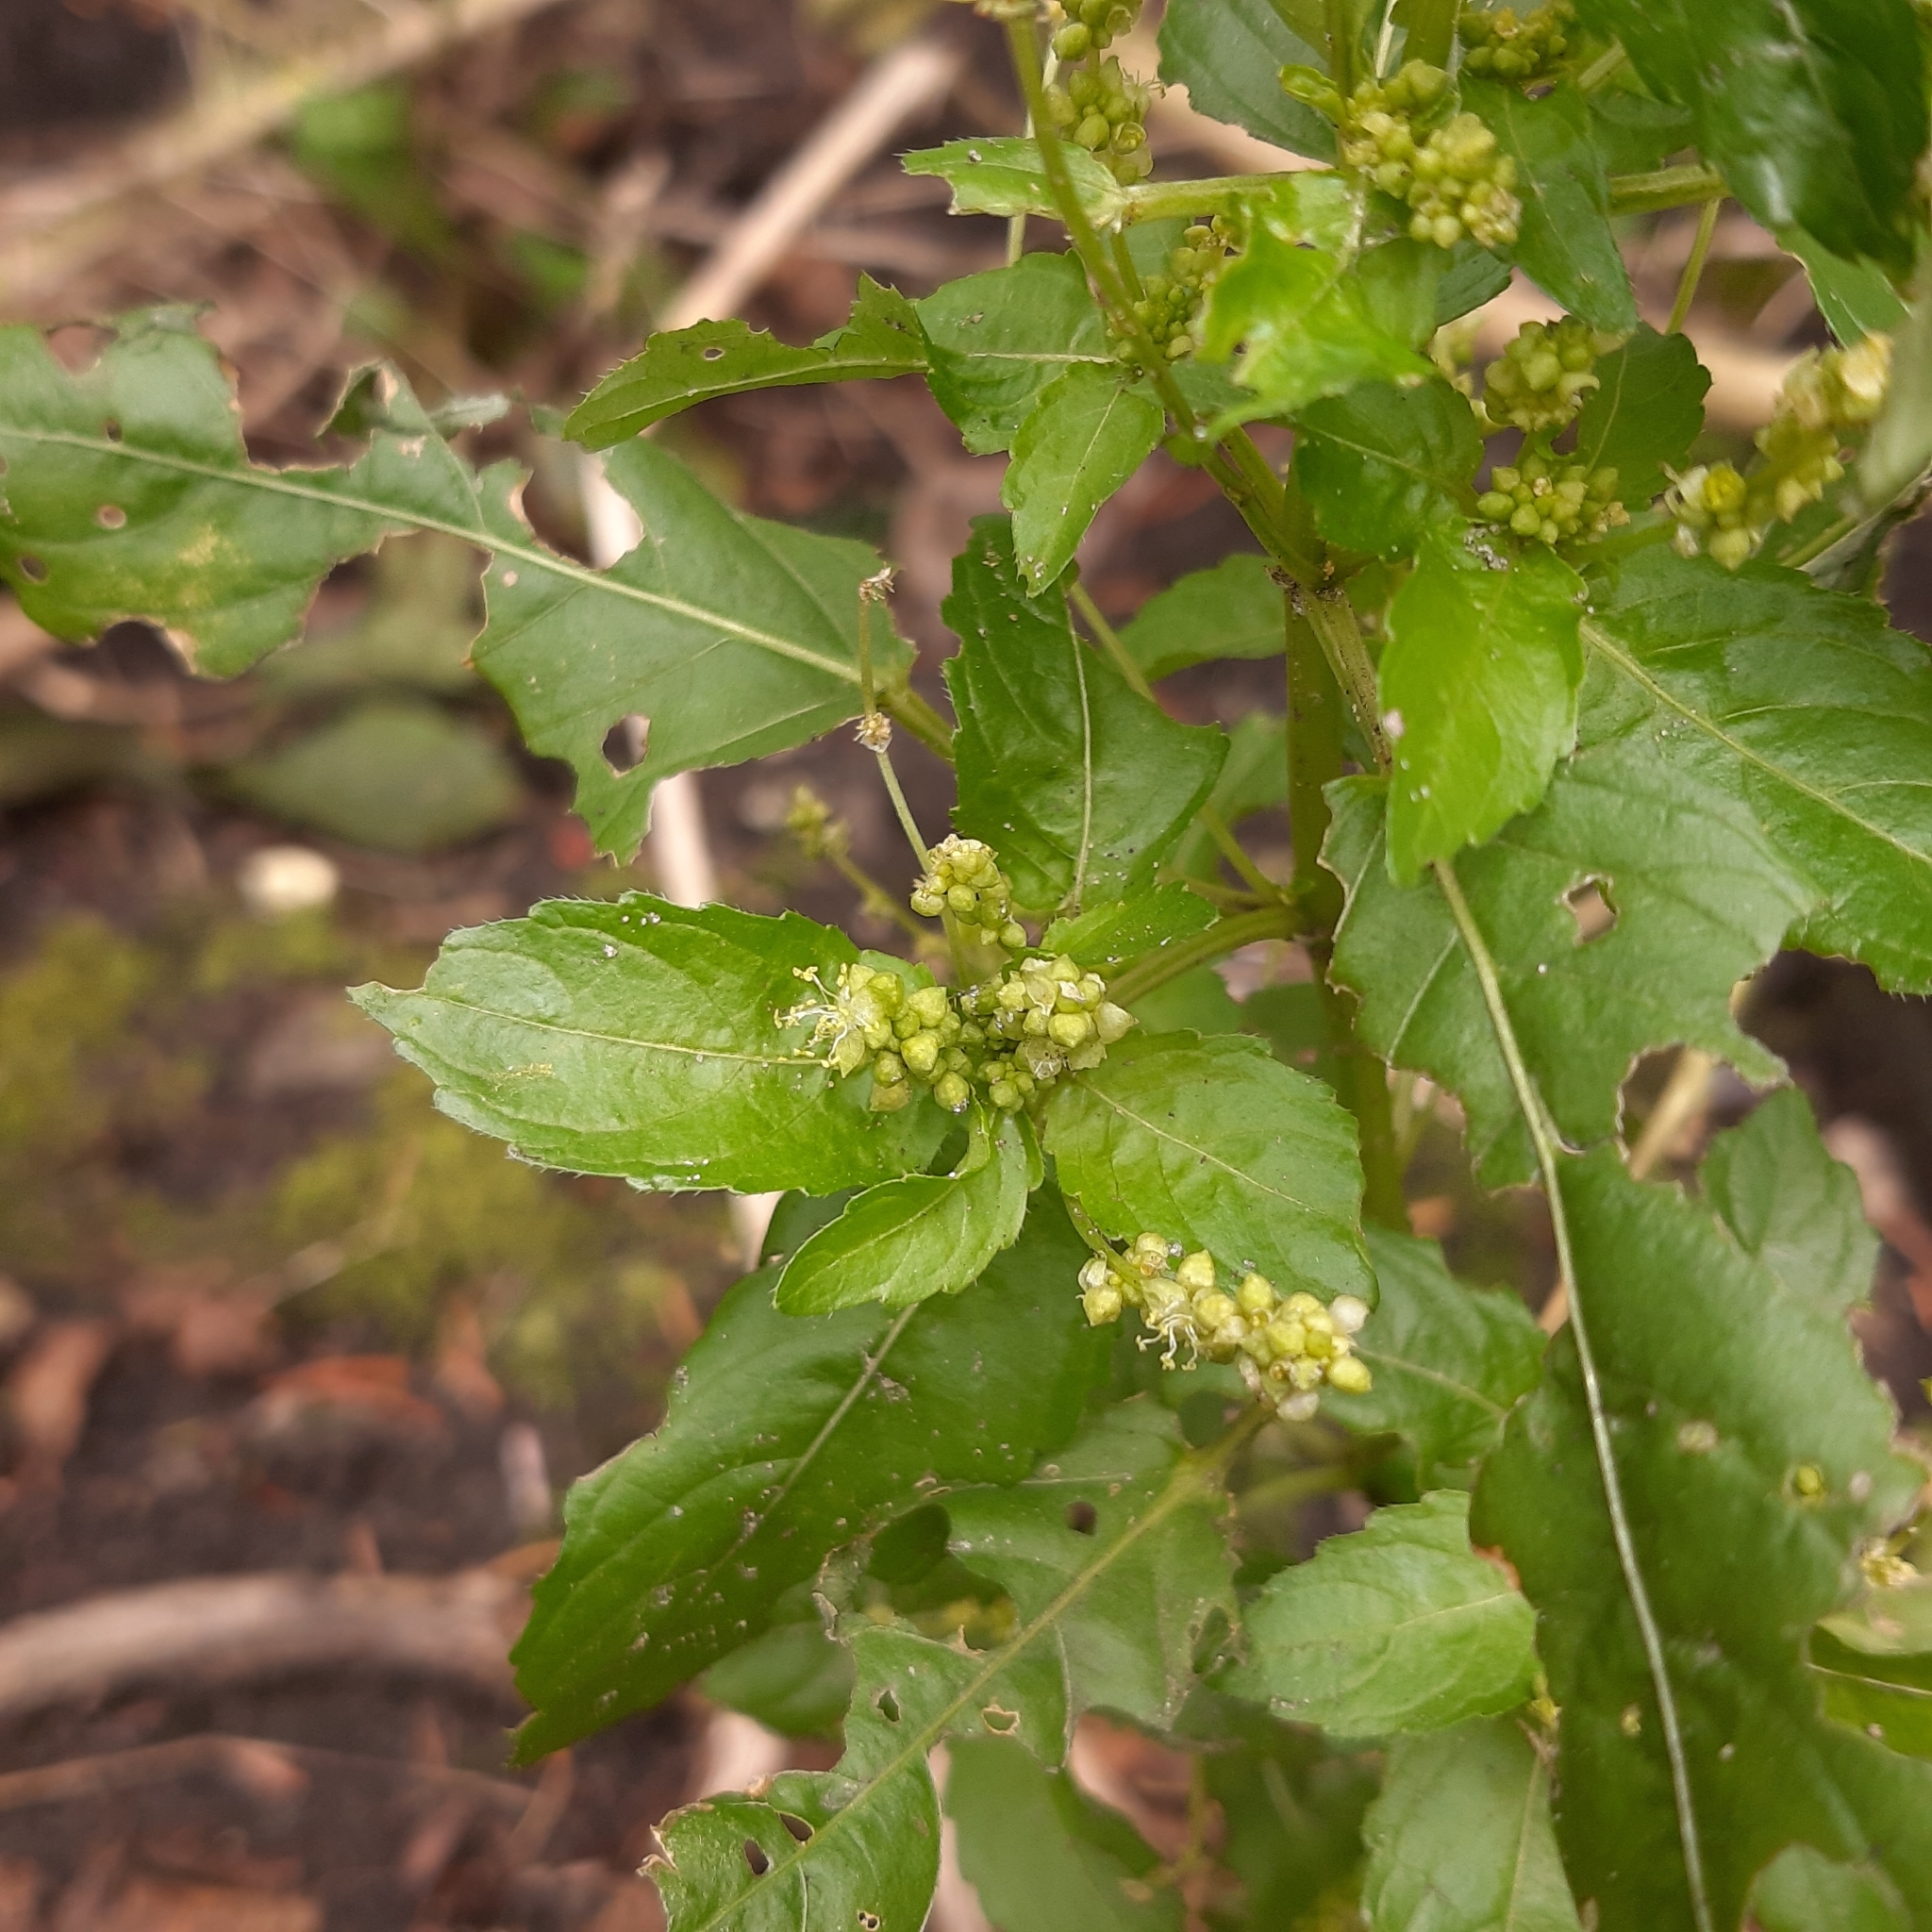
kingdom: Plantae
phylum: Tracheophyta
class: Magnoliopsida
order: Malpighiales
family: Euphorbiaceae
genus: Mercurialis
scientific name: Mercurialis annua
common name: Annual mercury
